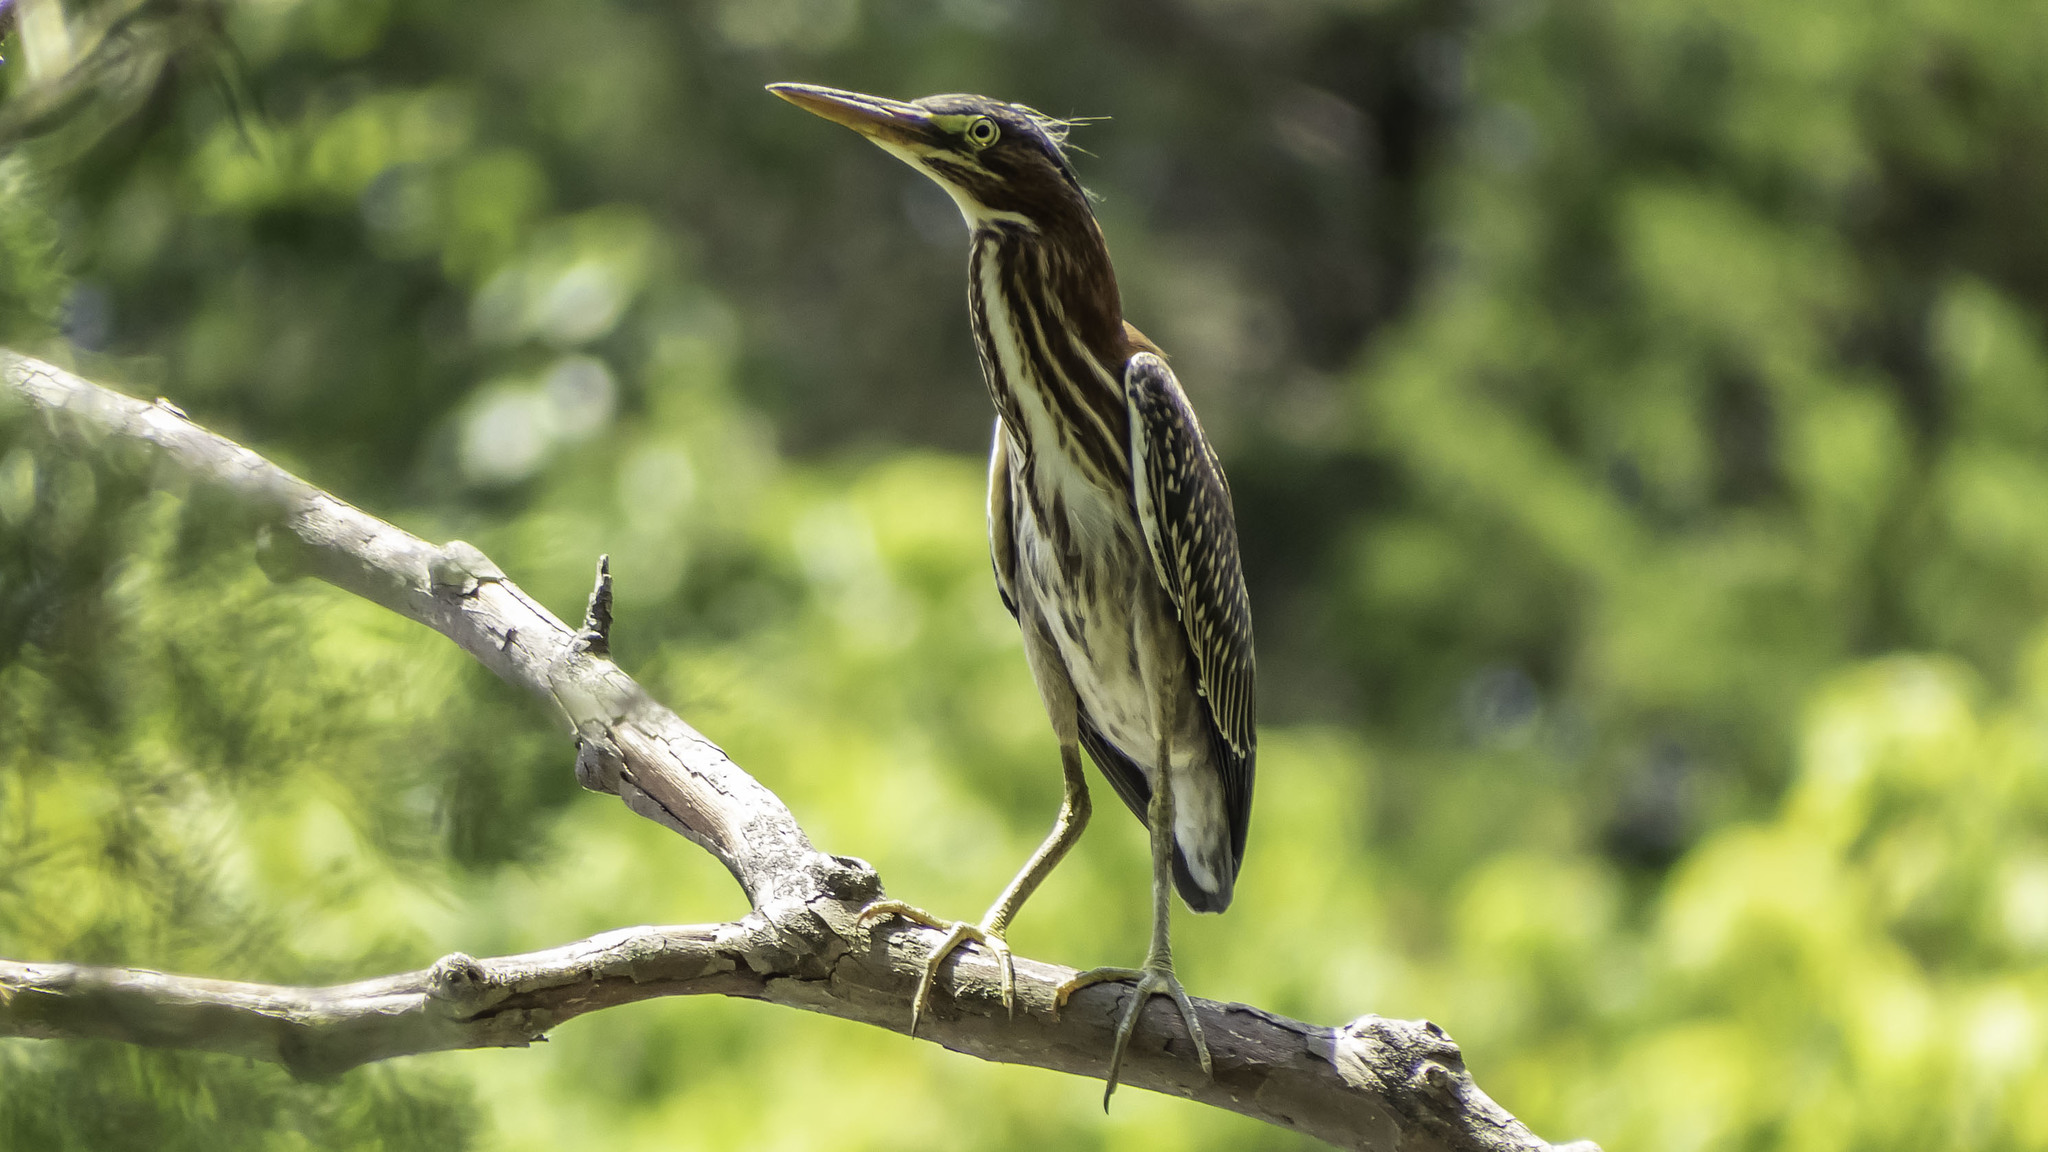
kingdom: Animalia
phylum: Chordata
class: Aves
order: Pelecaniformes
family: Ardeidae
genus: Butorides
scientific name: Butorides virescens
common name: Green heron
